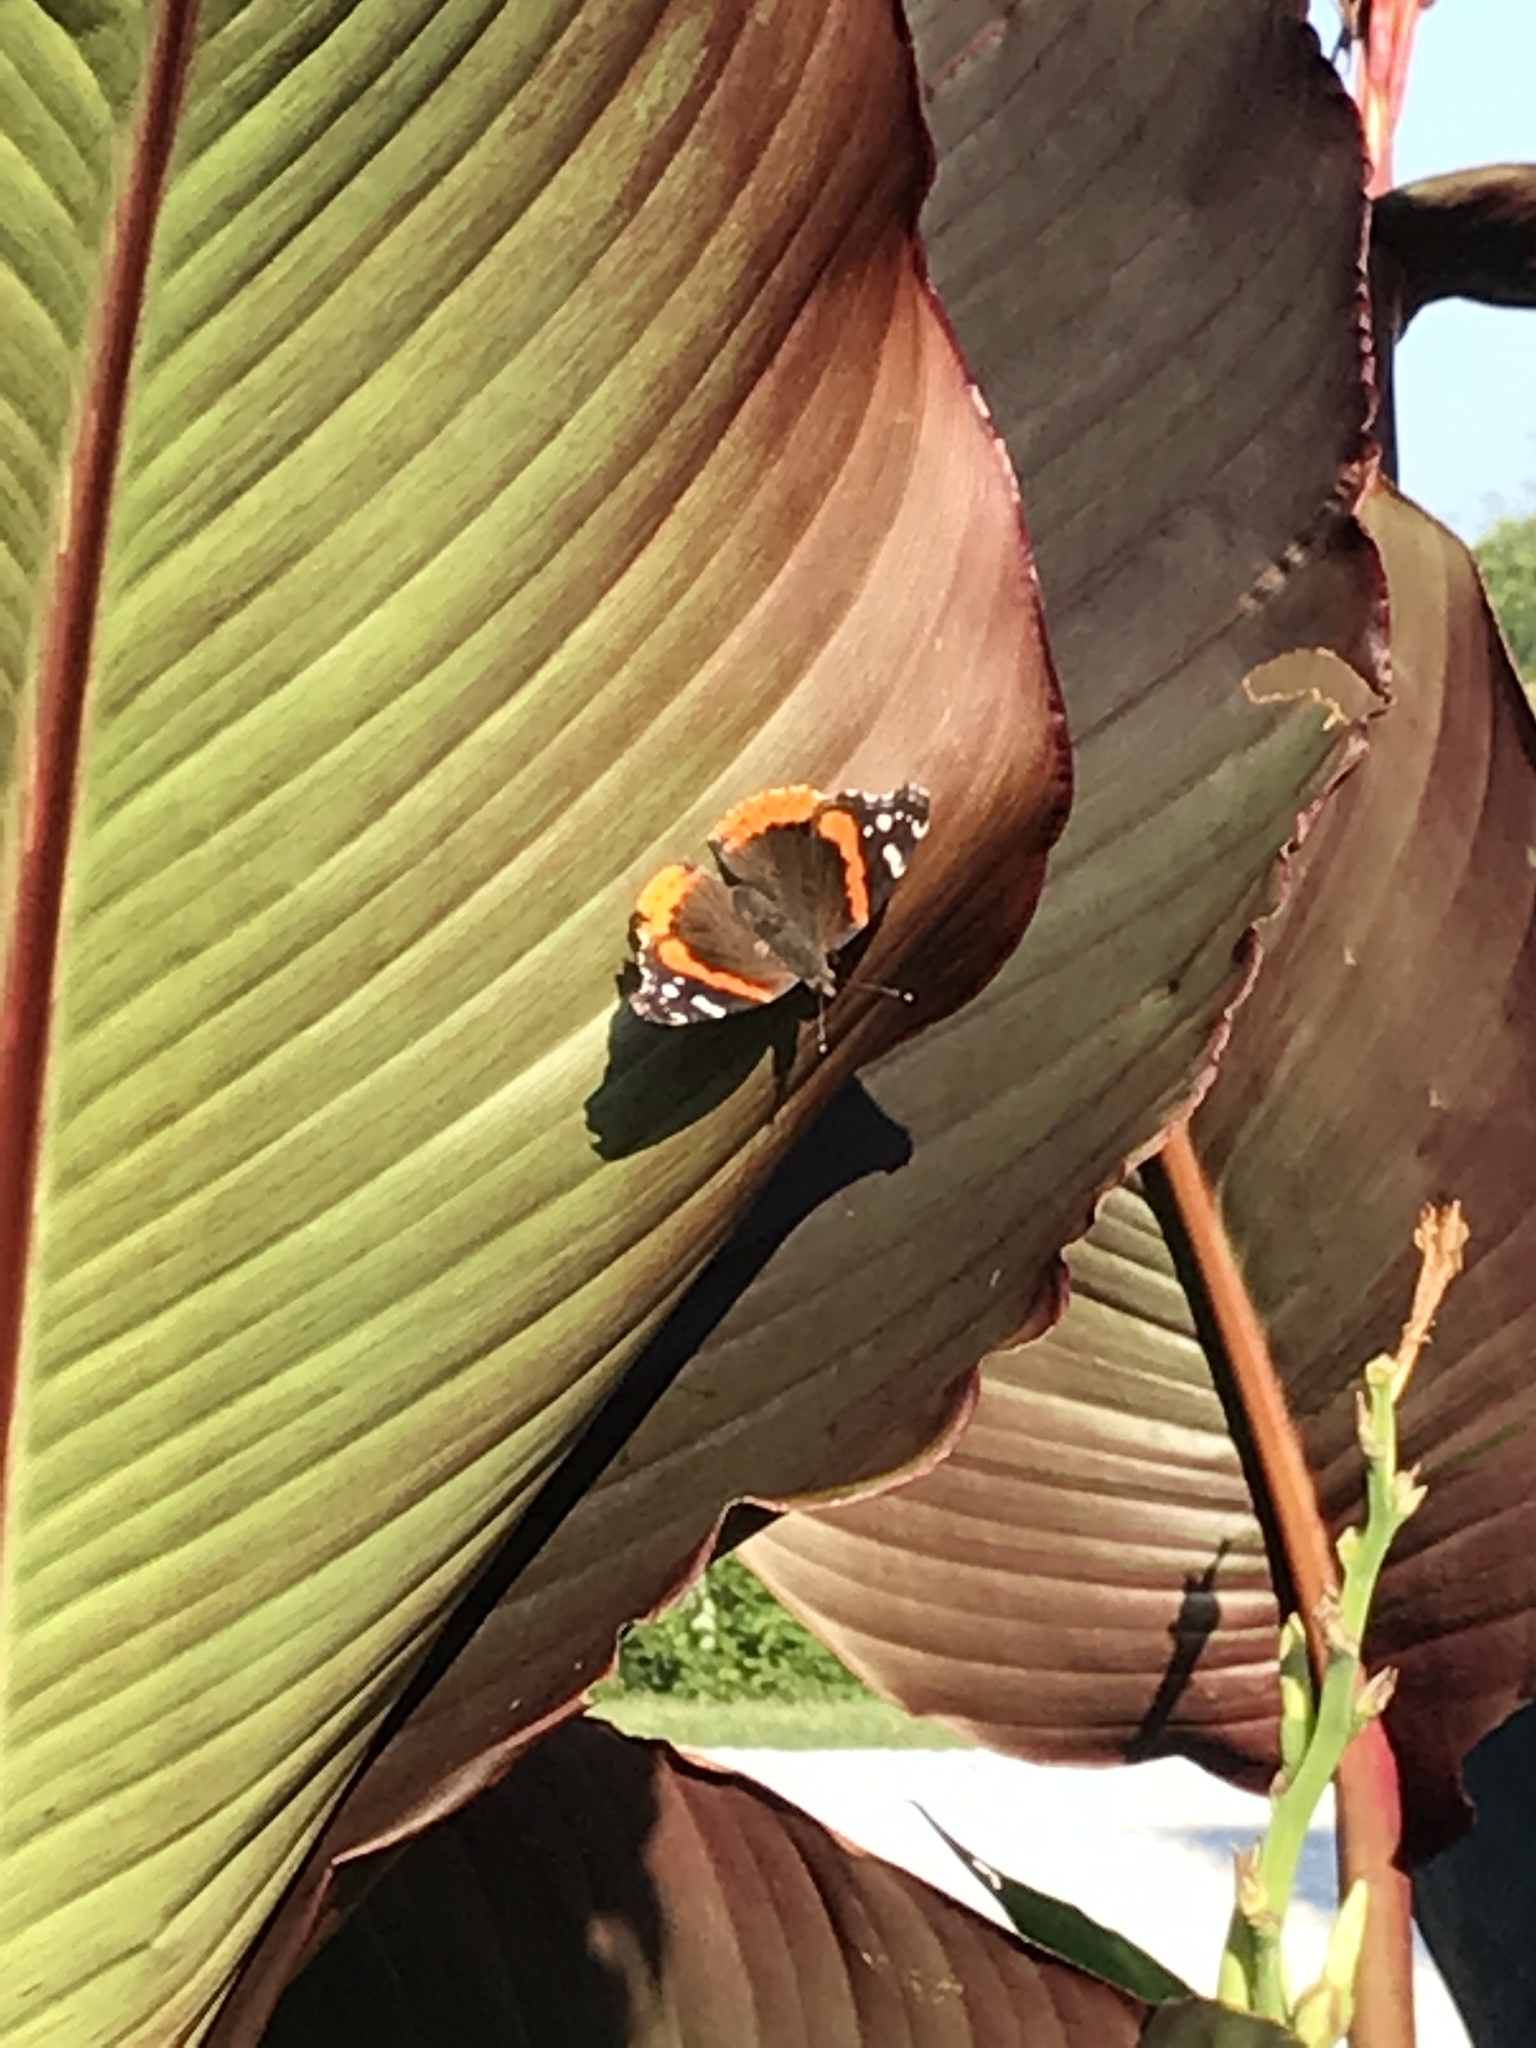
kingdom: Animalia
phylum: Arthropoda
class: Insecta
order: Lepidoptera
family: Nymphalidae
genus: Vanessa
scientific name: Vanessa atalanta
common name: Red admiral
